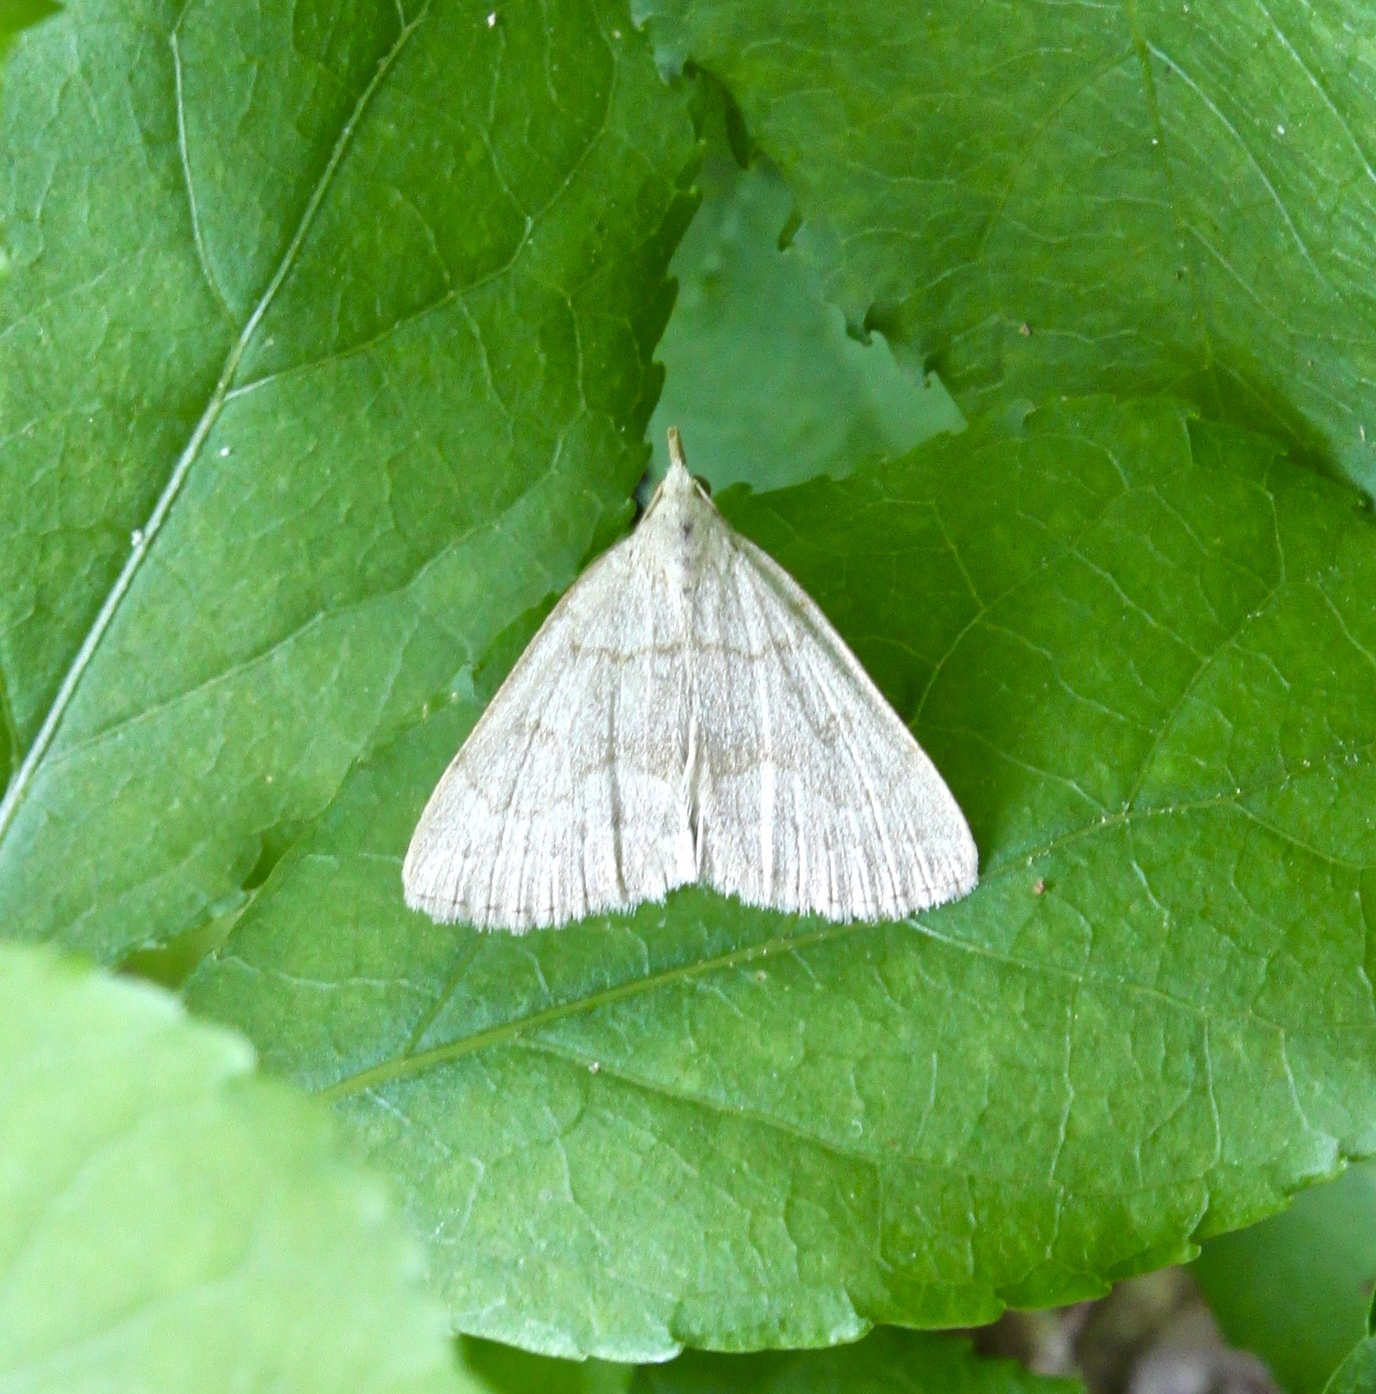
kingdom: Animalia
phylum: Arthropoda
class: Insecta
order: Lepidoptera
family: Erebidae
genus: Macrochilo
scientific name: Macrochilo morbidalis
